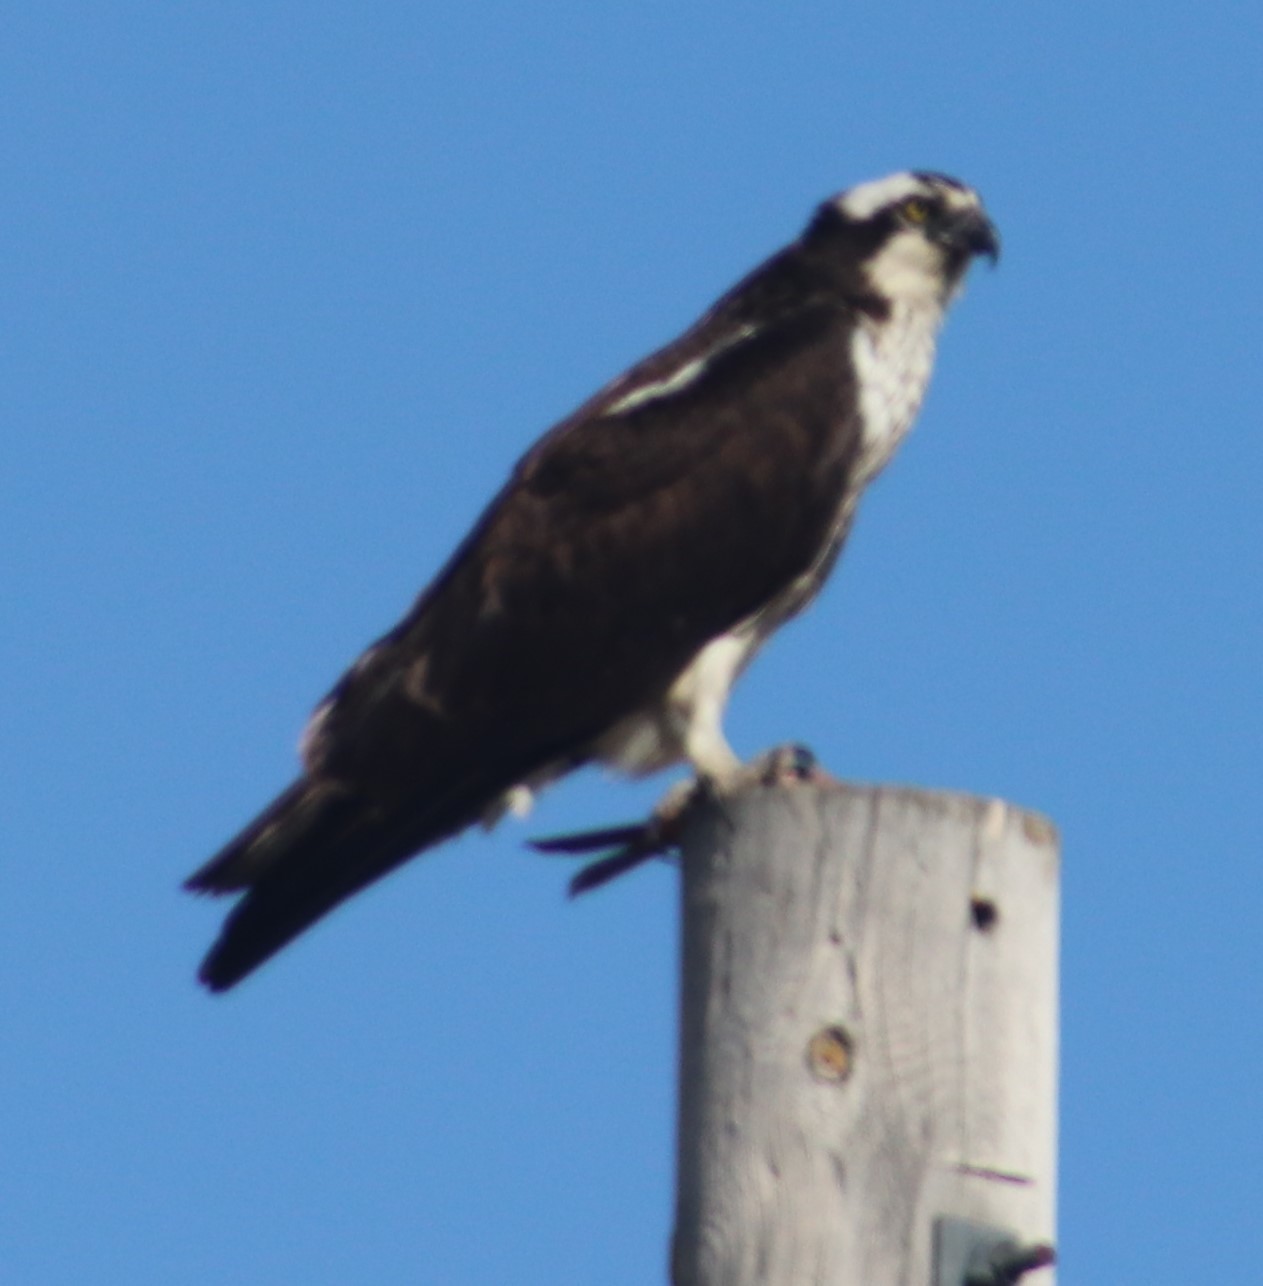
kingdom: Animalia
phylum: Chordata
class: Aves
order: Accipitriformes
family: Pandionidae
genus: Pandion
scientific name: Pandion haliaetus
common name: Osprey
